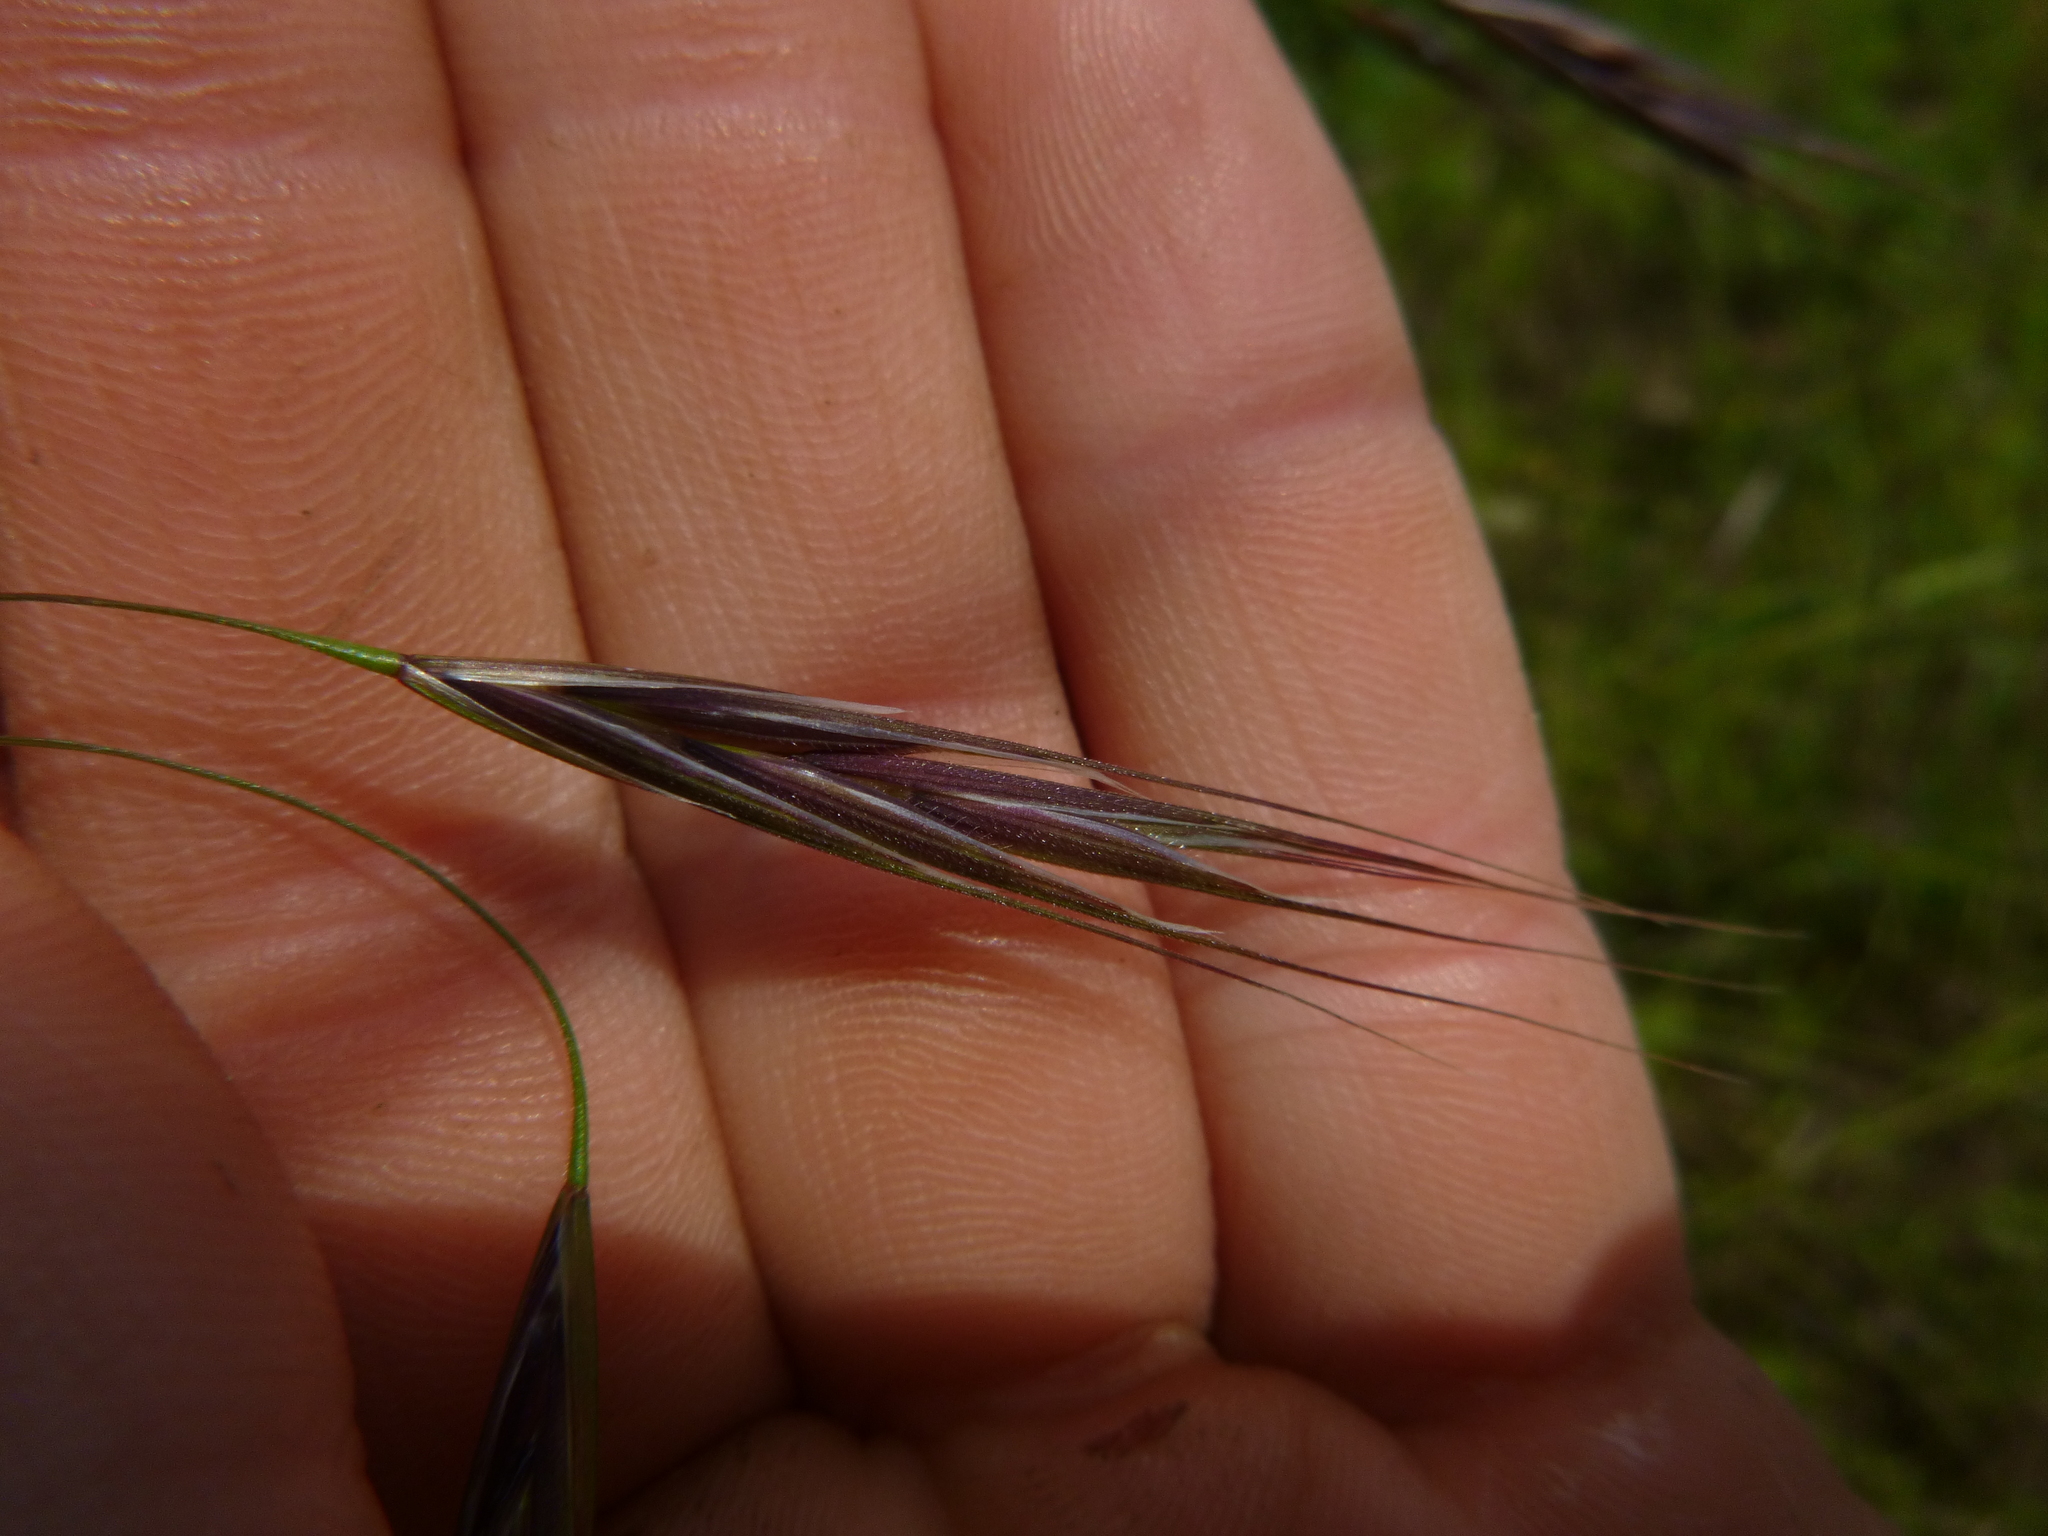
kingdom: Plantae
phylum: Tracheophyta
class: Liliopsida
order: Poales
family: Poaceae
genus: Bromus
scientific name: Bromus sterilis
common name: Poverty brome
